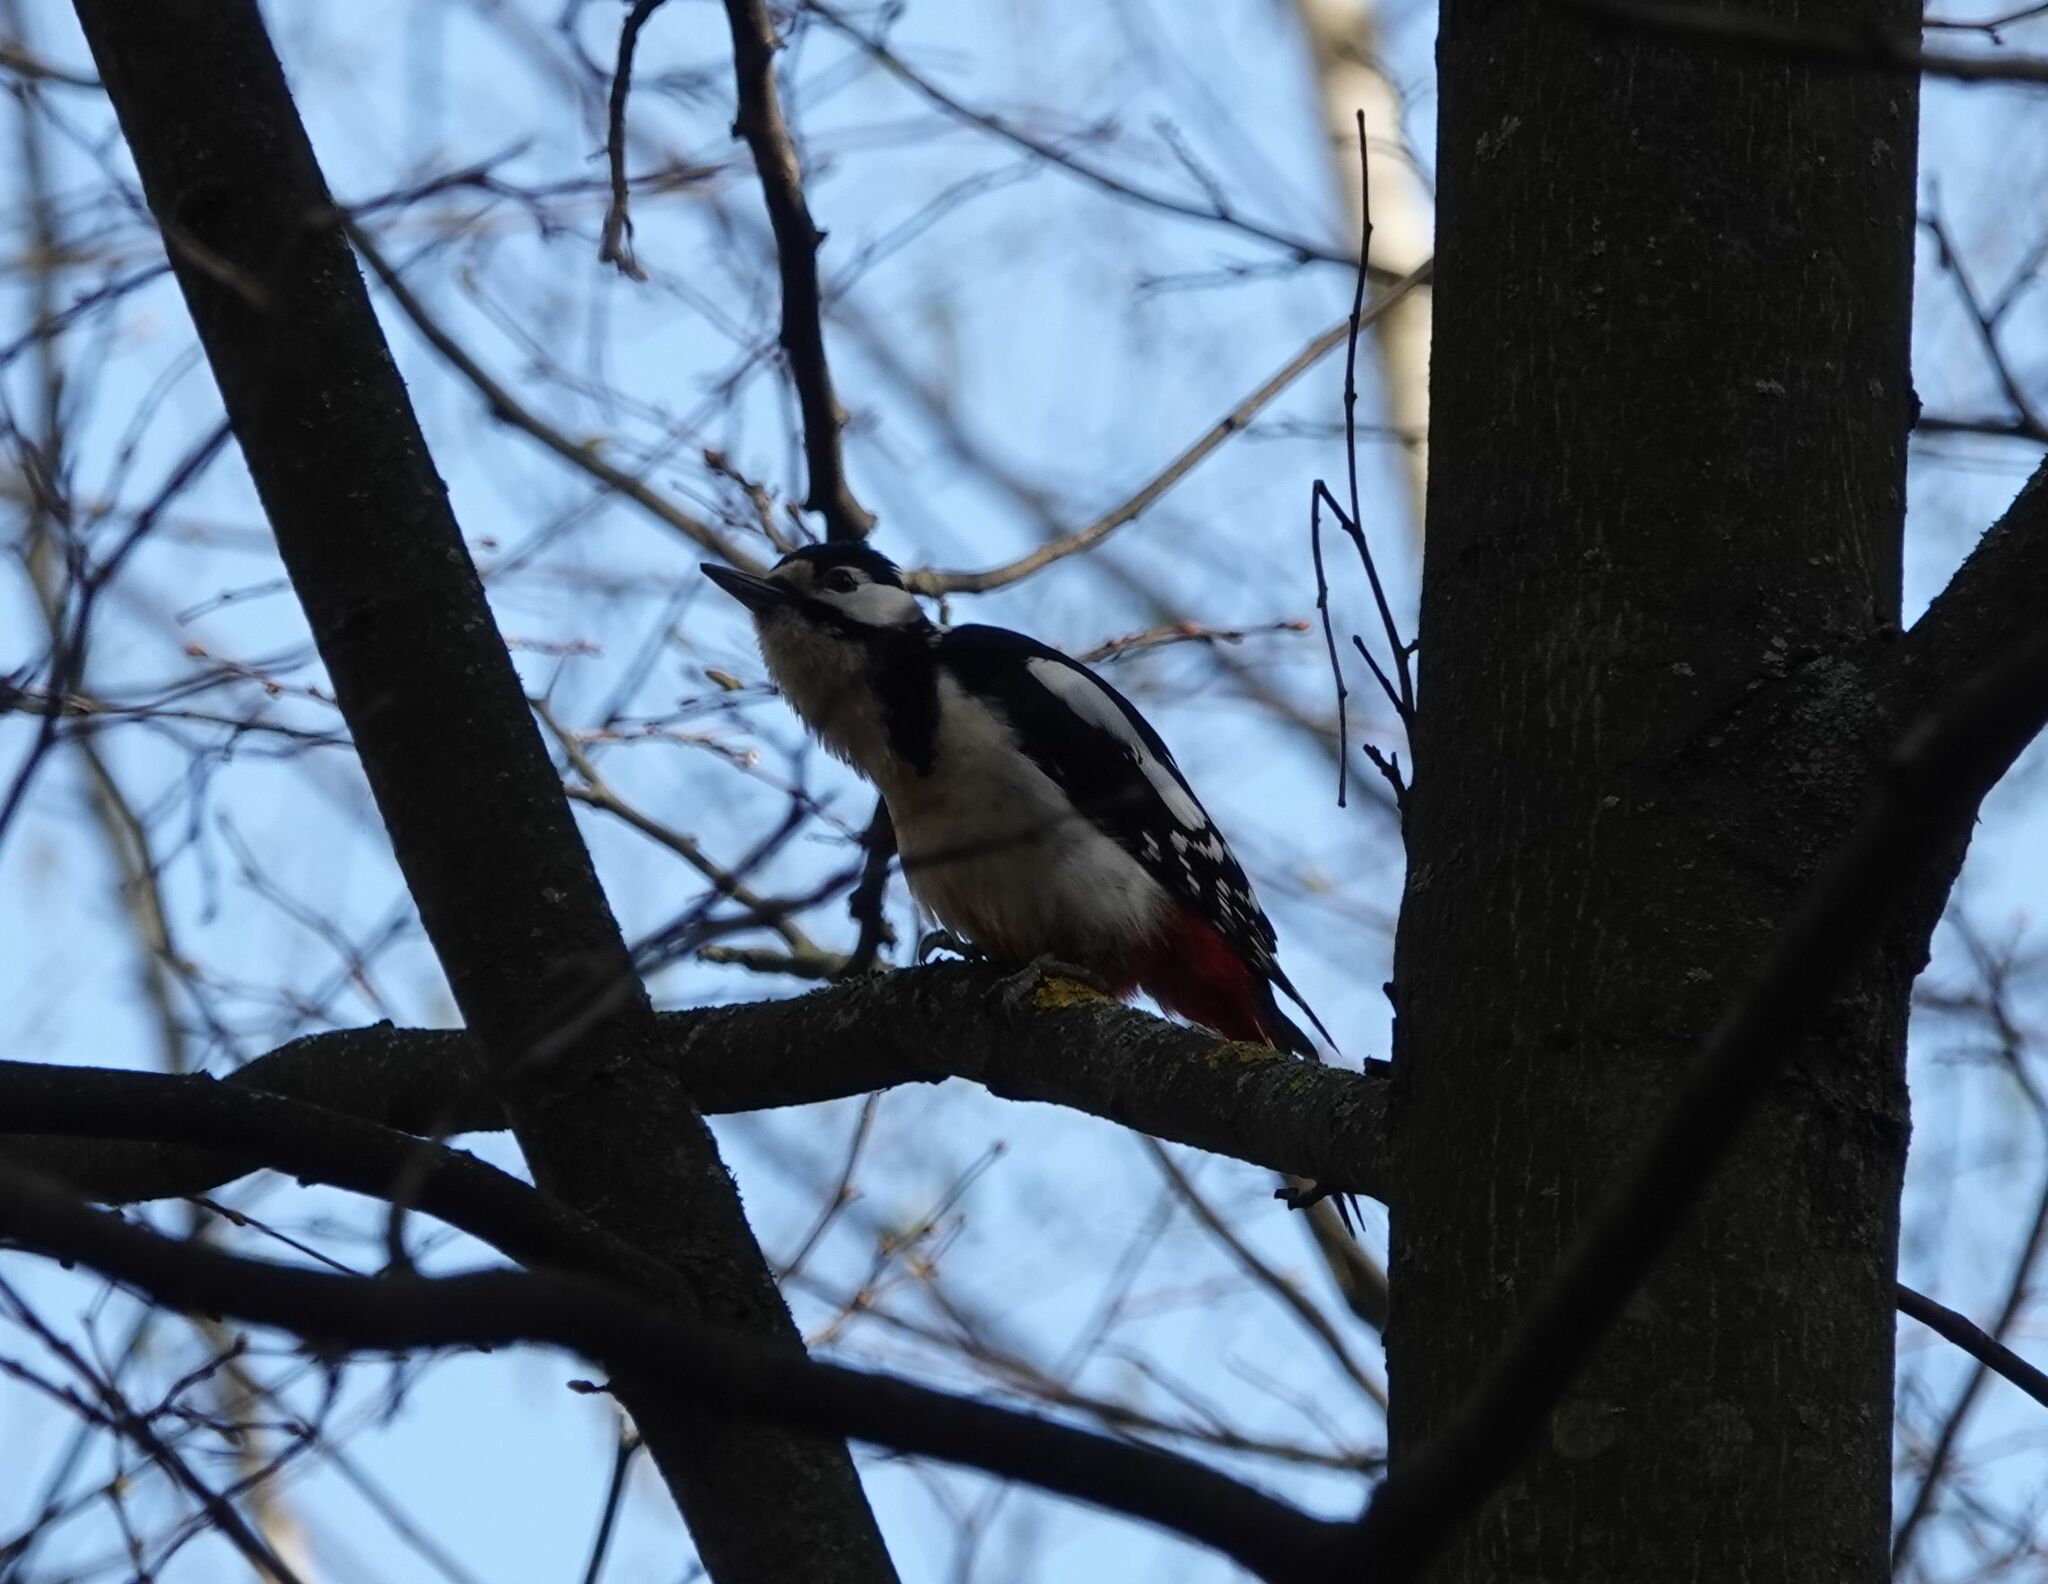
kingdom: Animalia
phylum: Chordata
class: Aves
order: Piciformes
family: Picidae
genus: Dendrocopos
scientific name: Dendrocopos major
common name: Great spotted woodpecker
